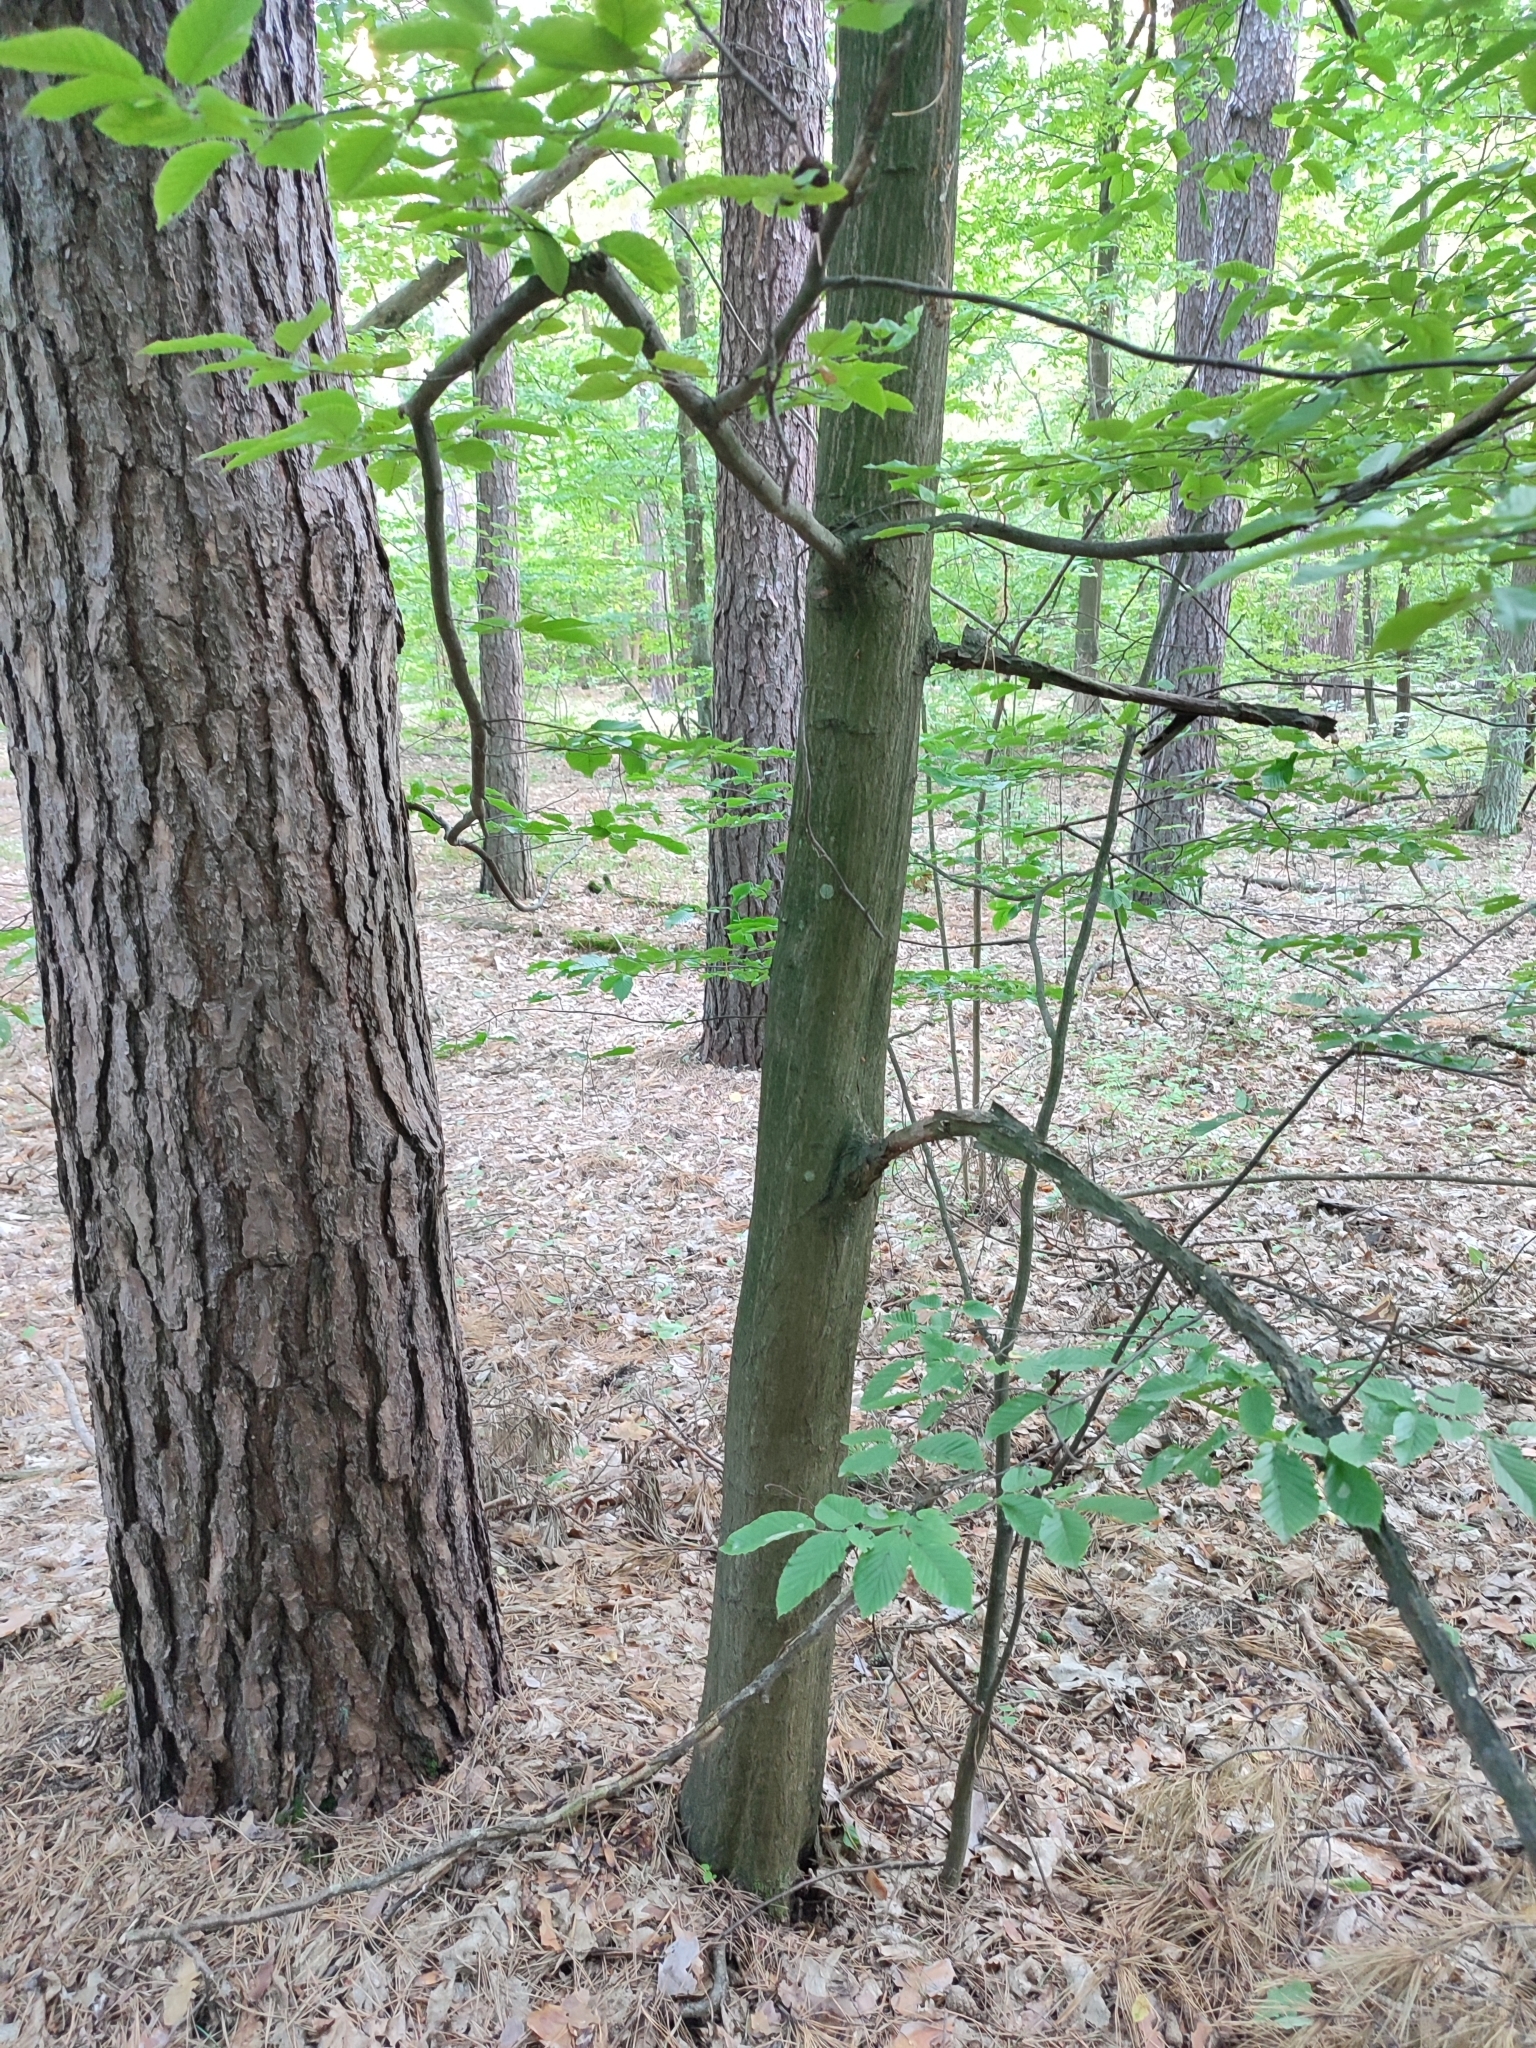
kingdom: Plantae
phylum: Tracheophyta
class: Magnoliopsida
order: Fagales
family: Betulaceae
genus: Carpinus
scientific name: Carpinus betulus
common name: Hornbeam
